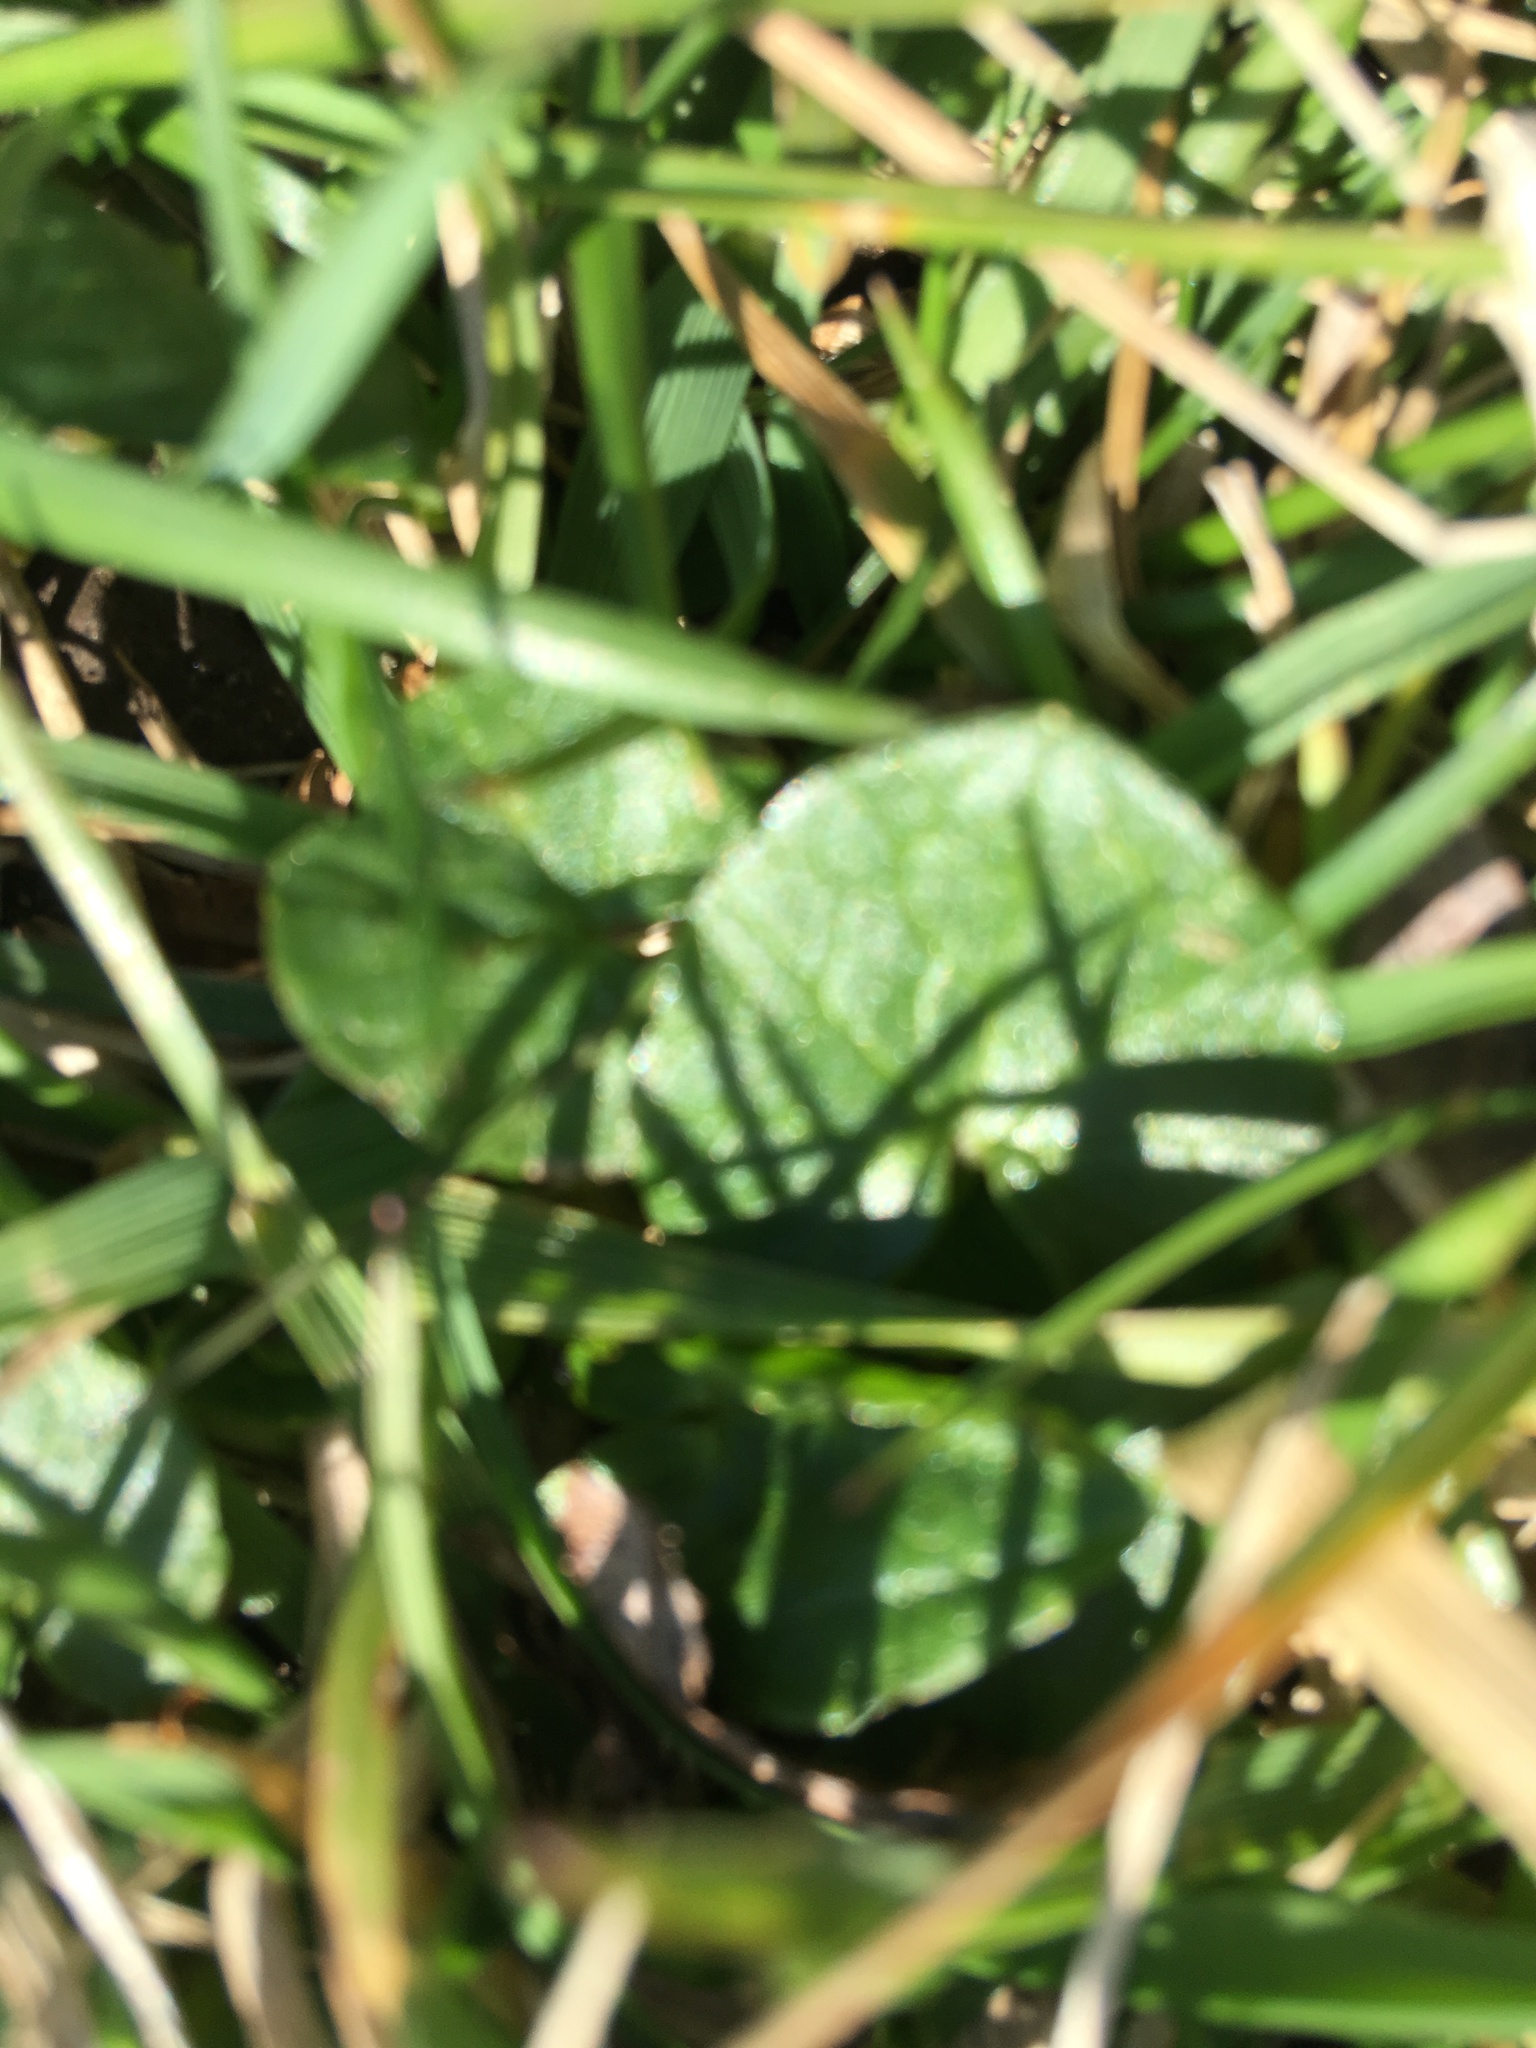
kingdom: Plantae
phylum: Tracheophyta
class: Magnoliopsida
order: Ranunculales
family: Ranunculaceae
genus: Ficaria
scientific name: Ficaria verna
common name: Lesser celandine
